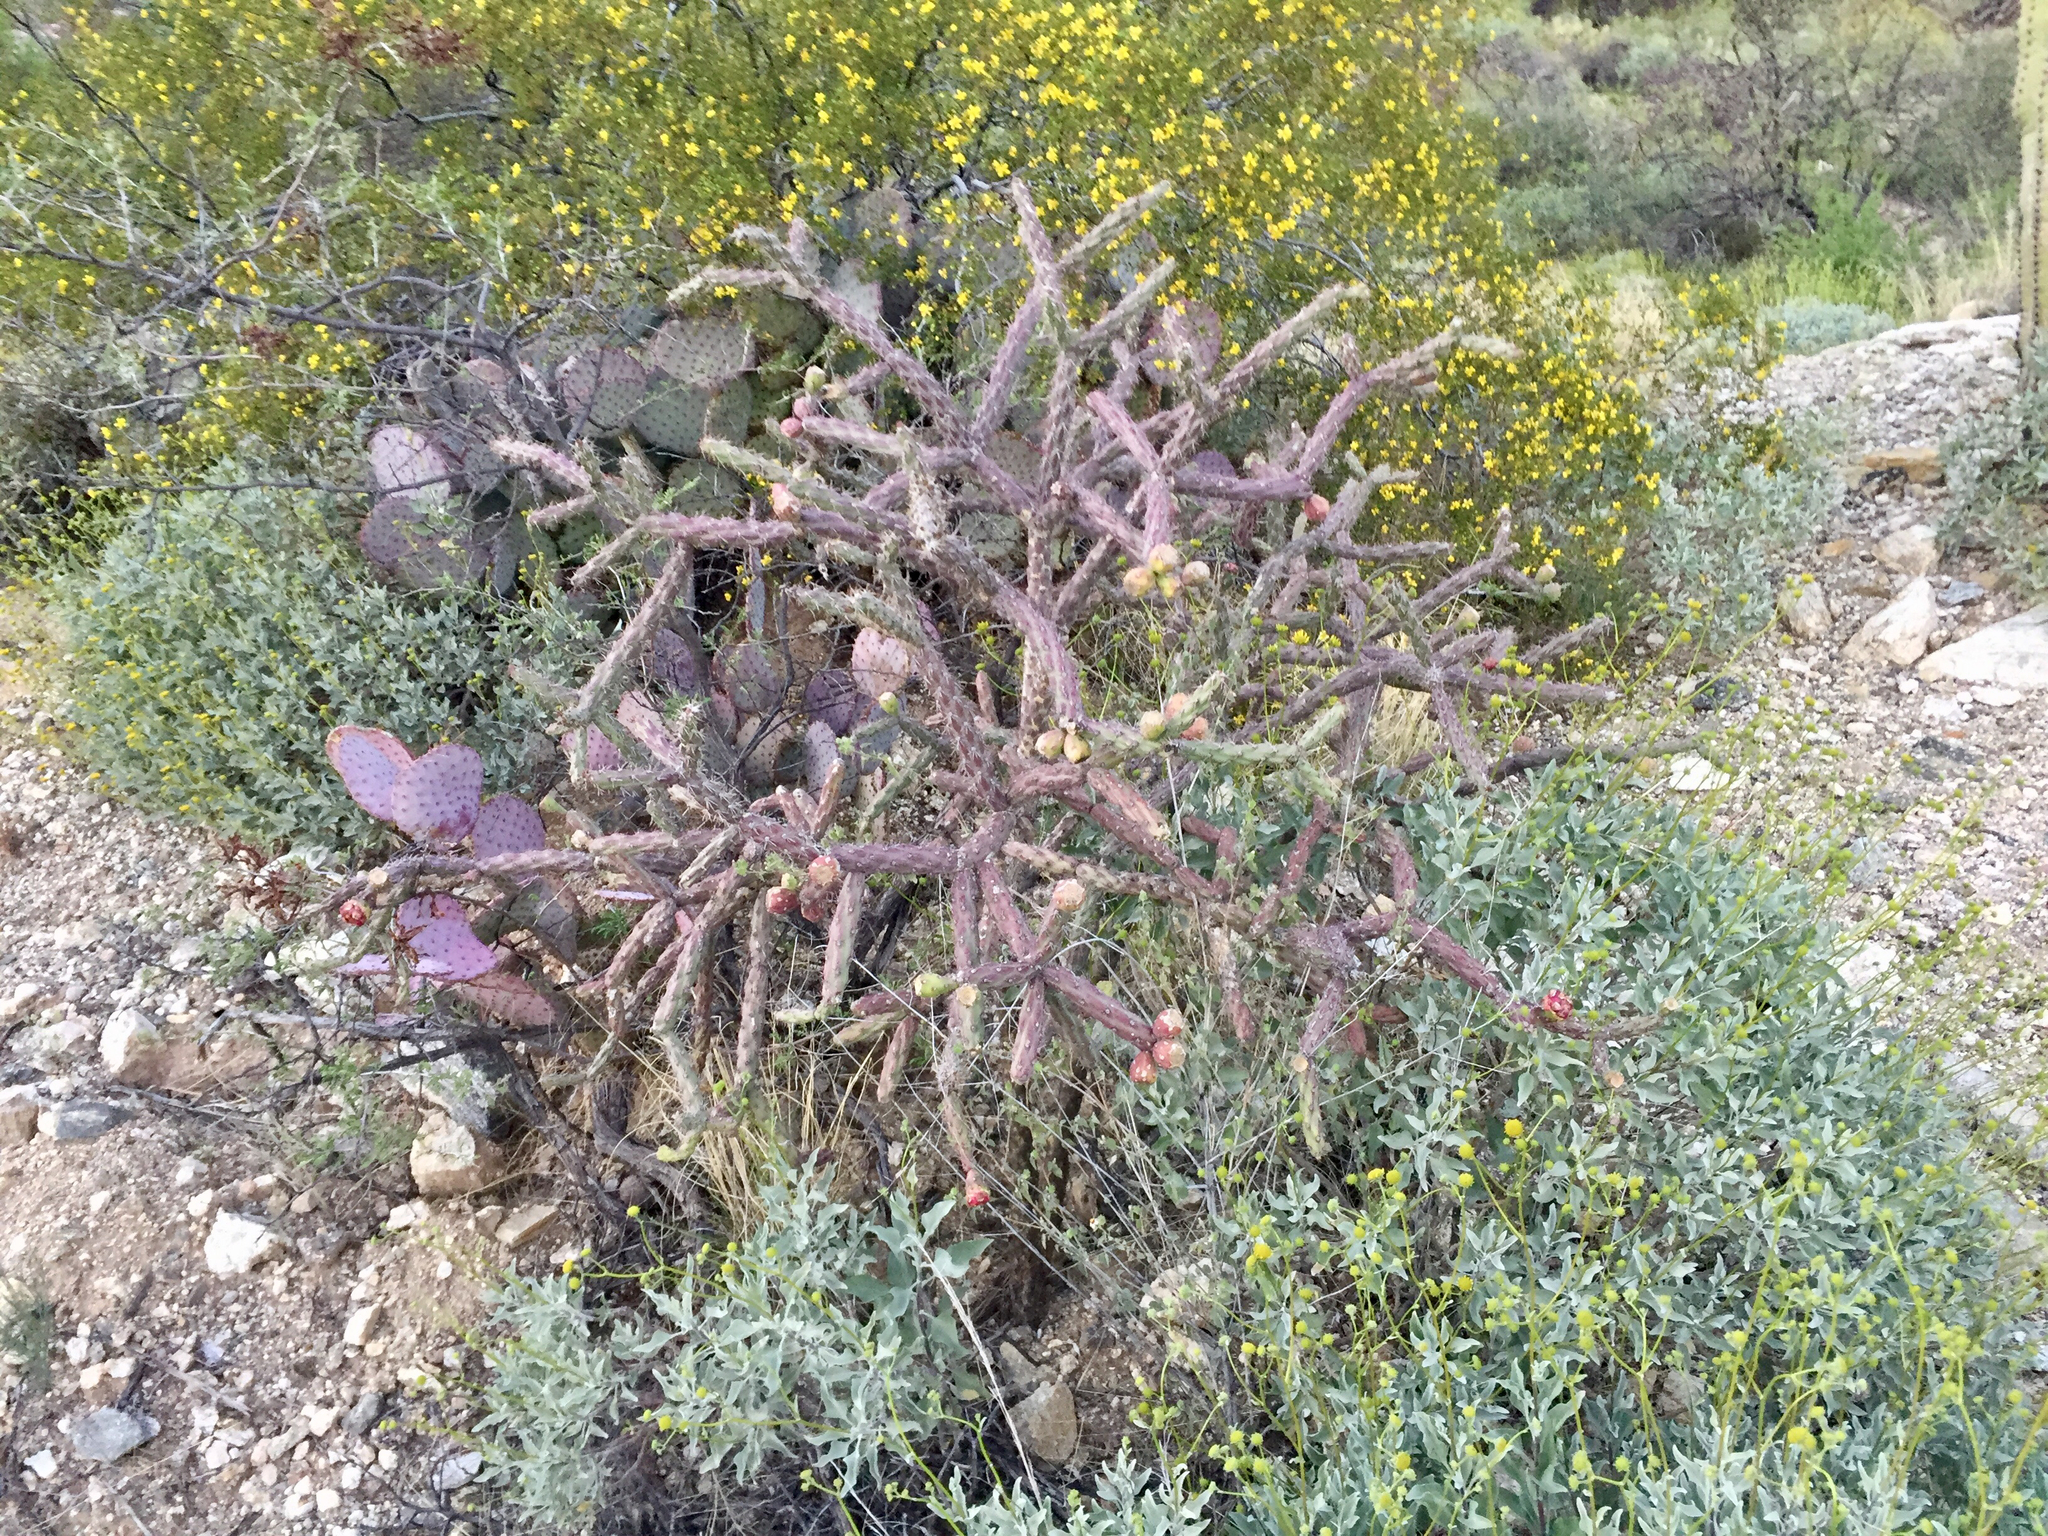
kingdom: Plantae
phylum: Tracheophyta
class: Magnoliopsida
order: Caryophyllales
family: Cactaceae
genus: Cylindropuntia
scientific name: Cylindropuntia thurberi
